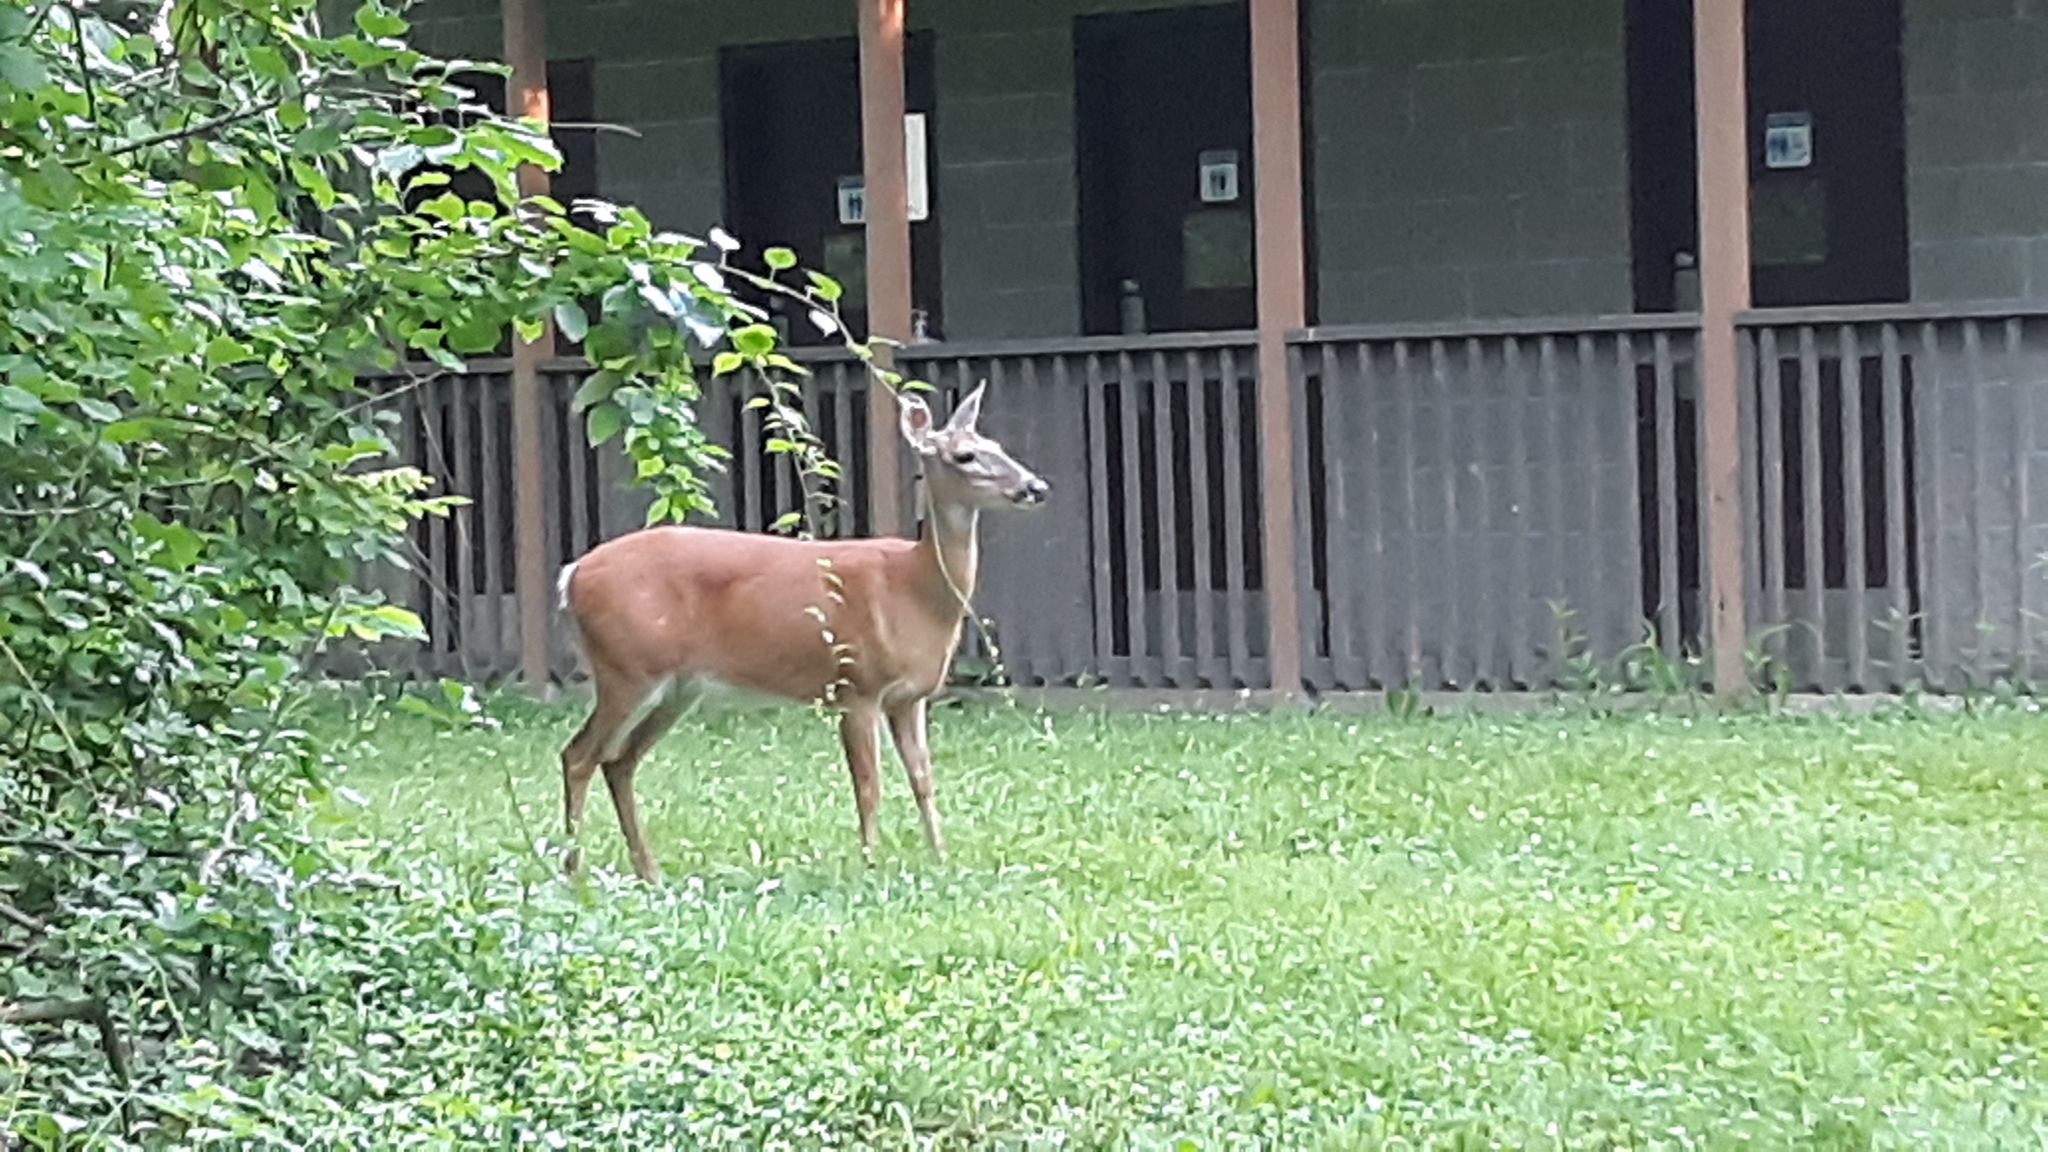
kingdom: Animalia
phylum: Chordata
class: Mammalia
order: Artiodactyla
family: Cervidae
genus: Odocoileus
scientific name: Odocoileus virginianus
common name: White-tailed deer
